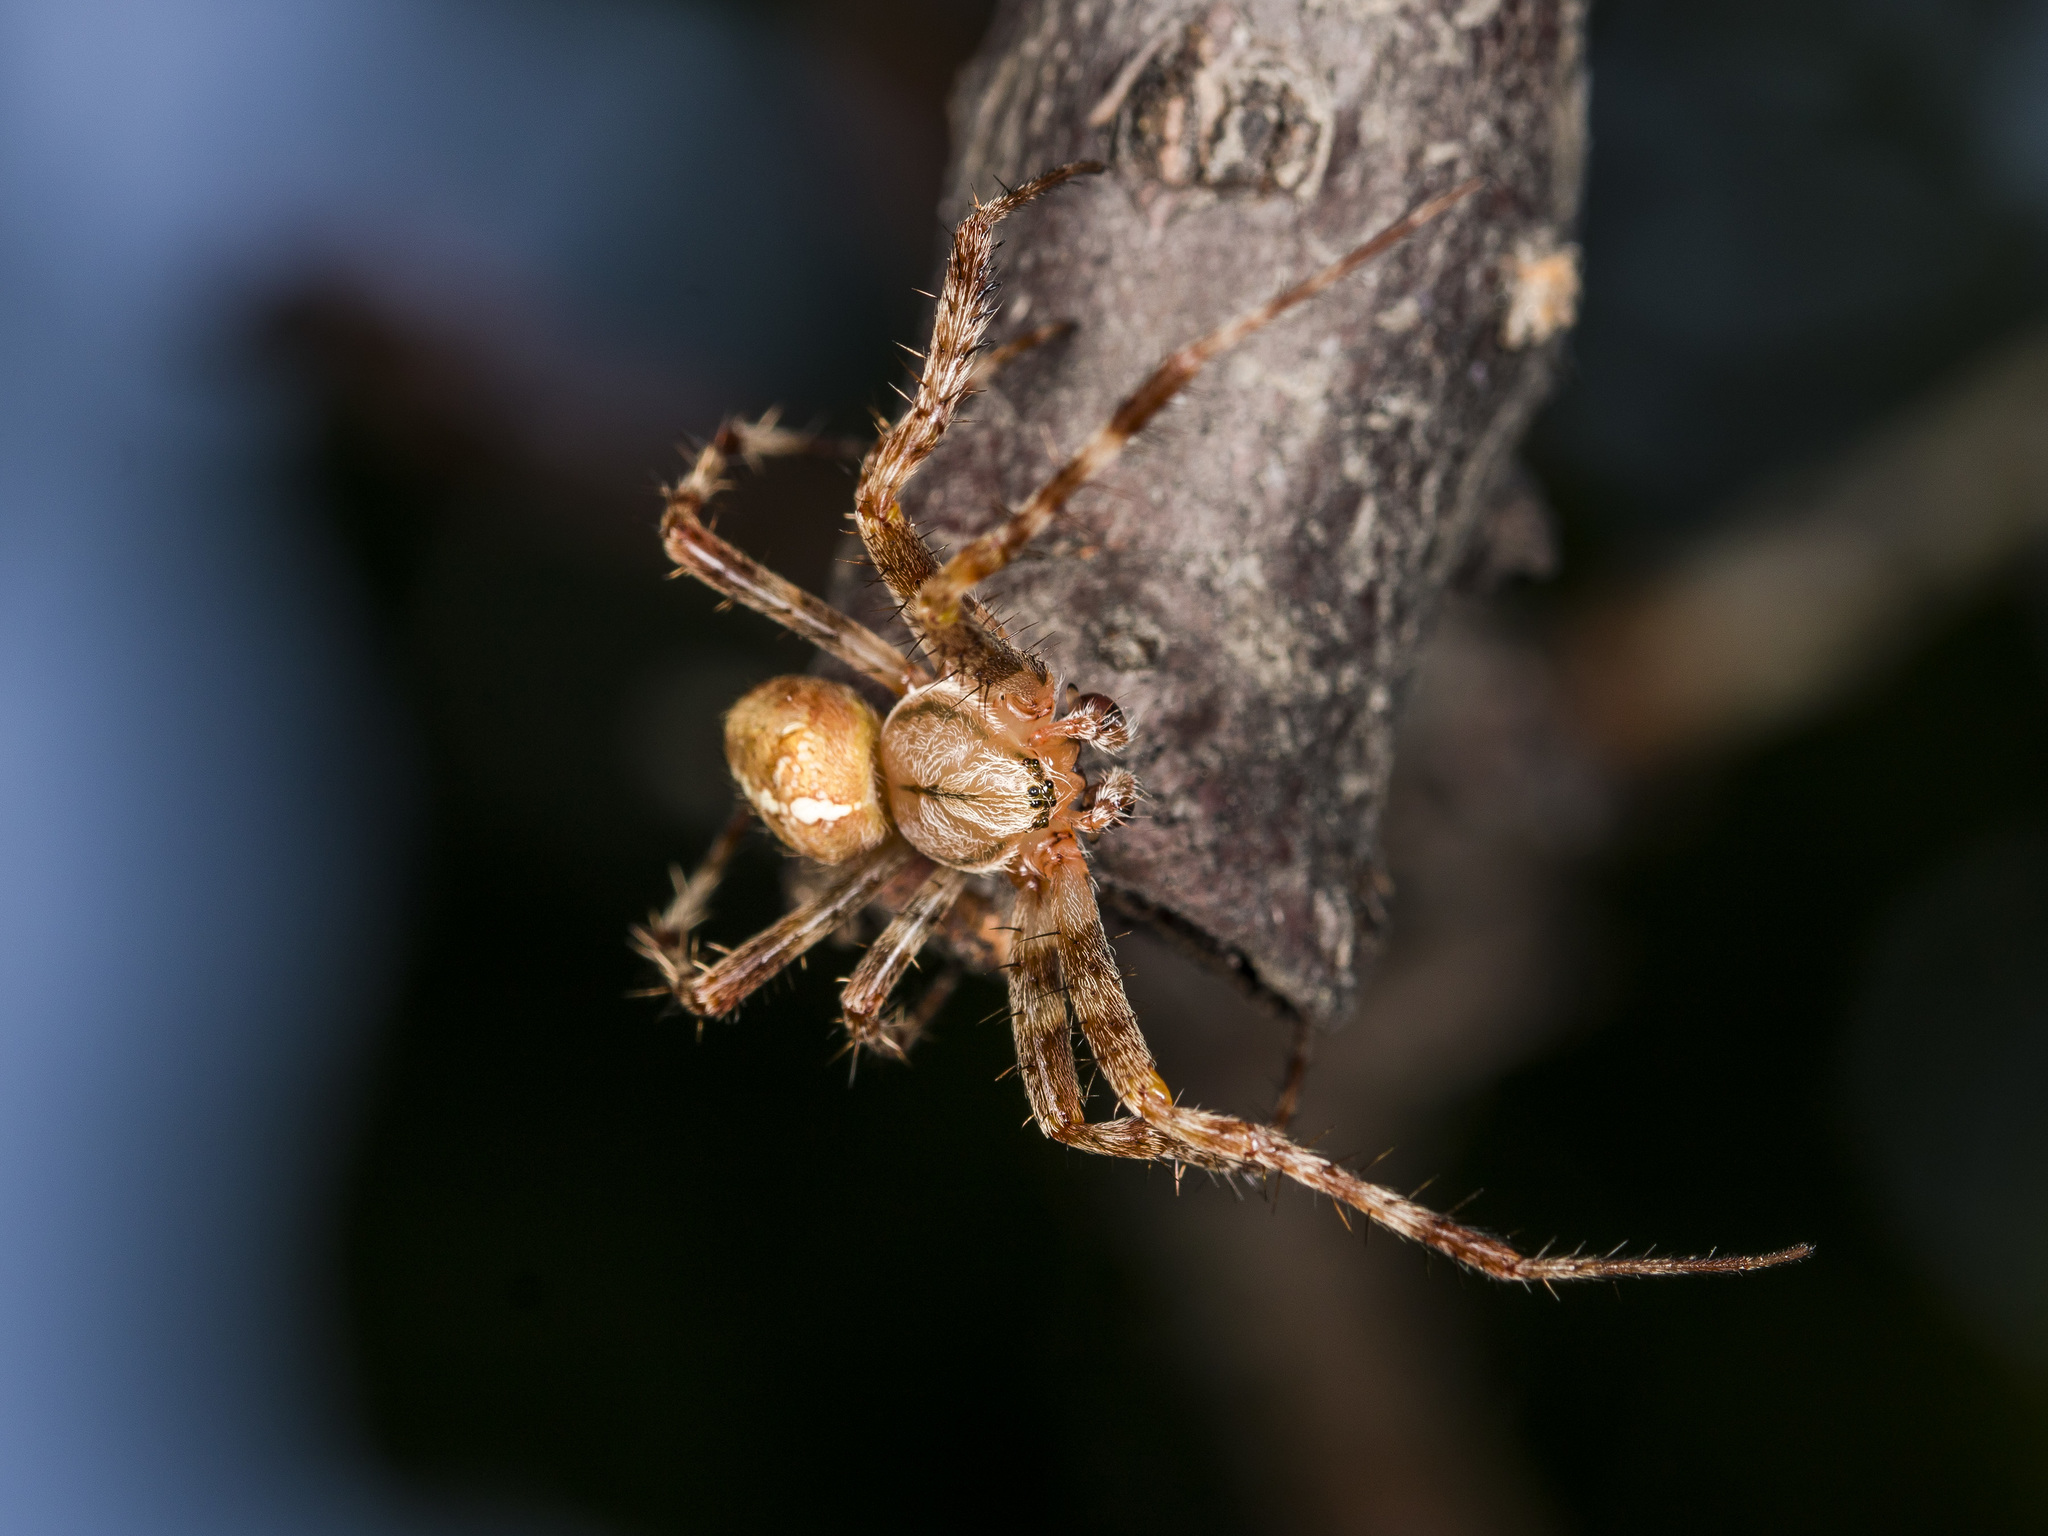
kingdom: Animalia
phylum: Arthropoda
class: Arachnida
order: Araneae
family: Araneidae
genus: Araneus
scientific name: Araneus diadematus
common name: Cross orbweaver
